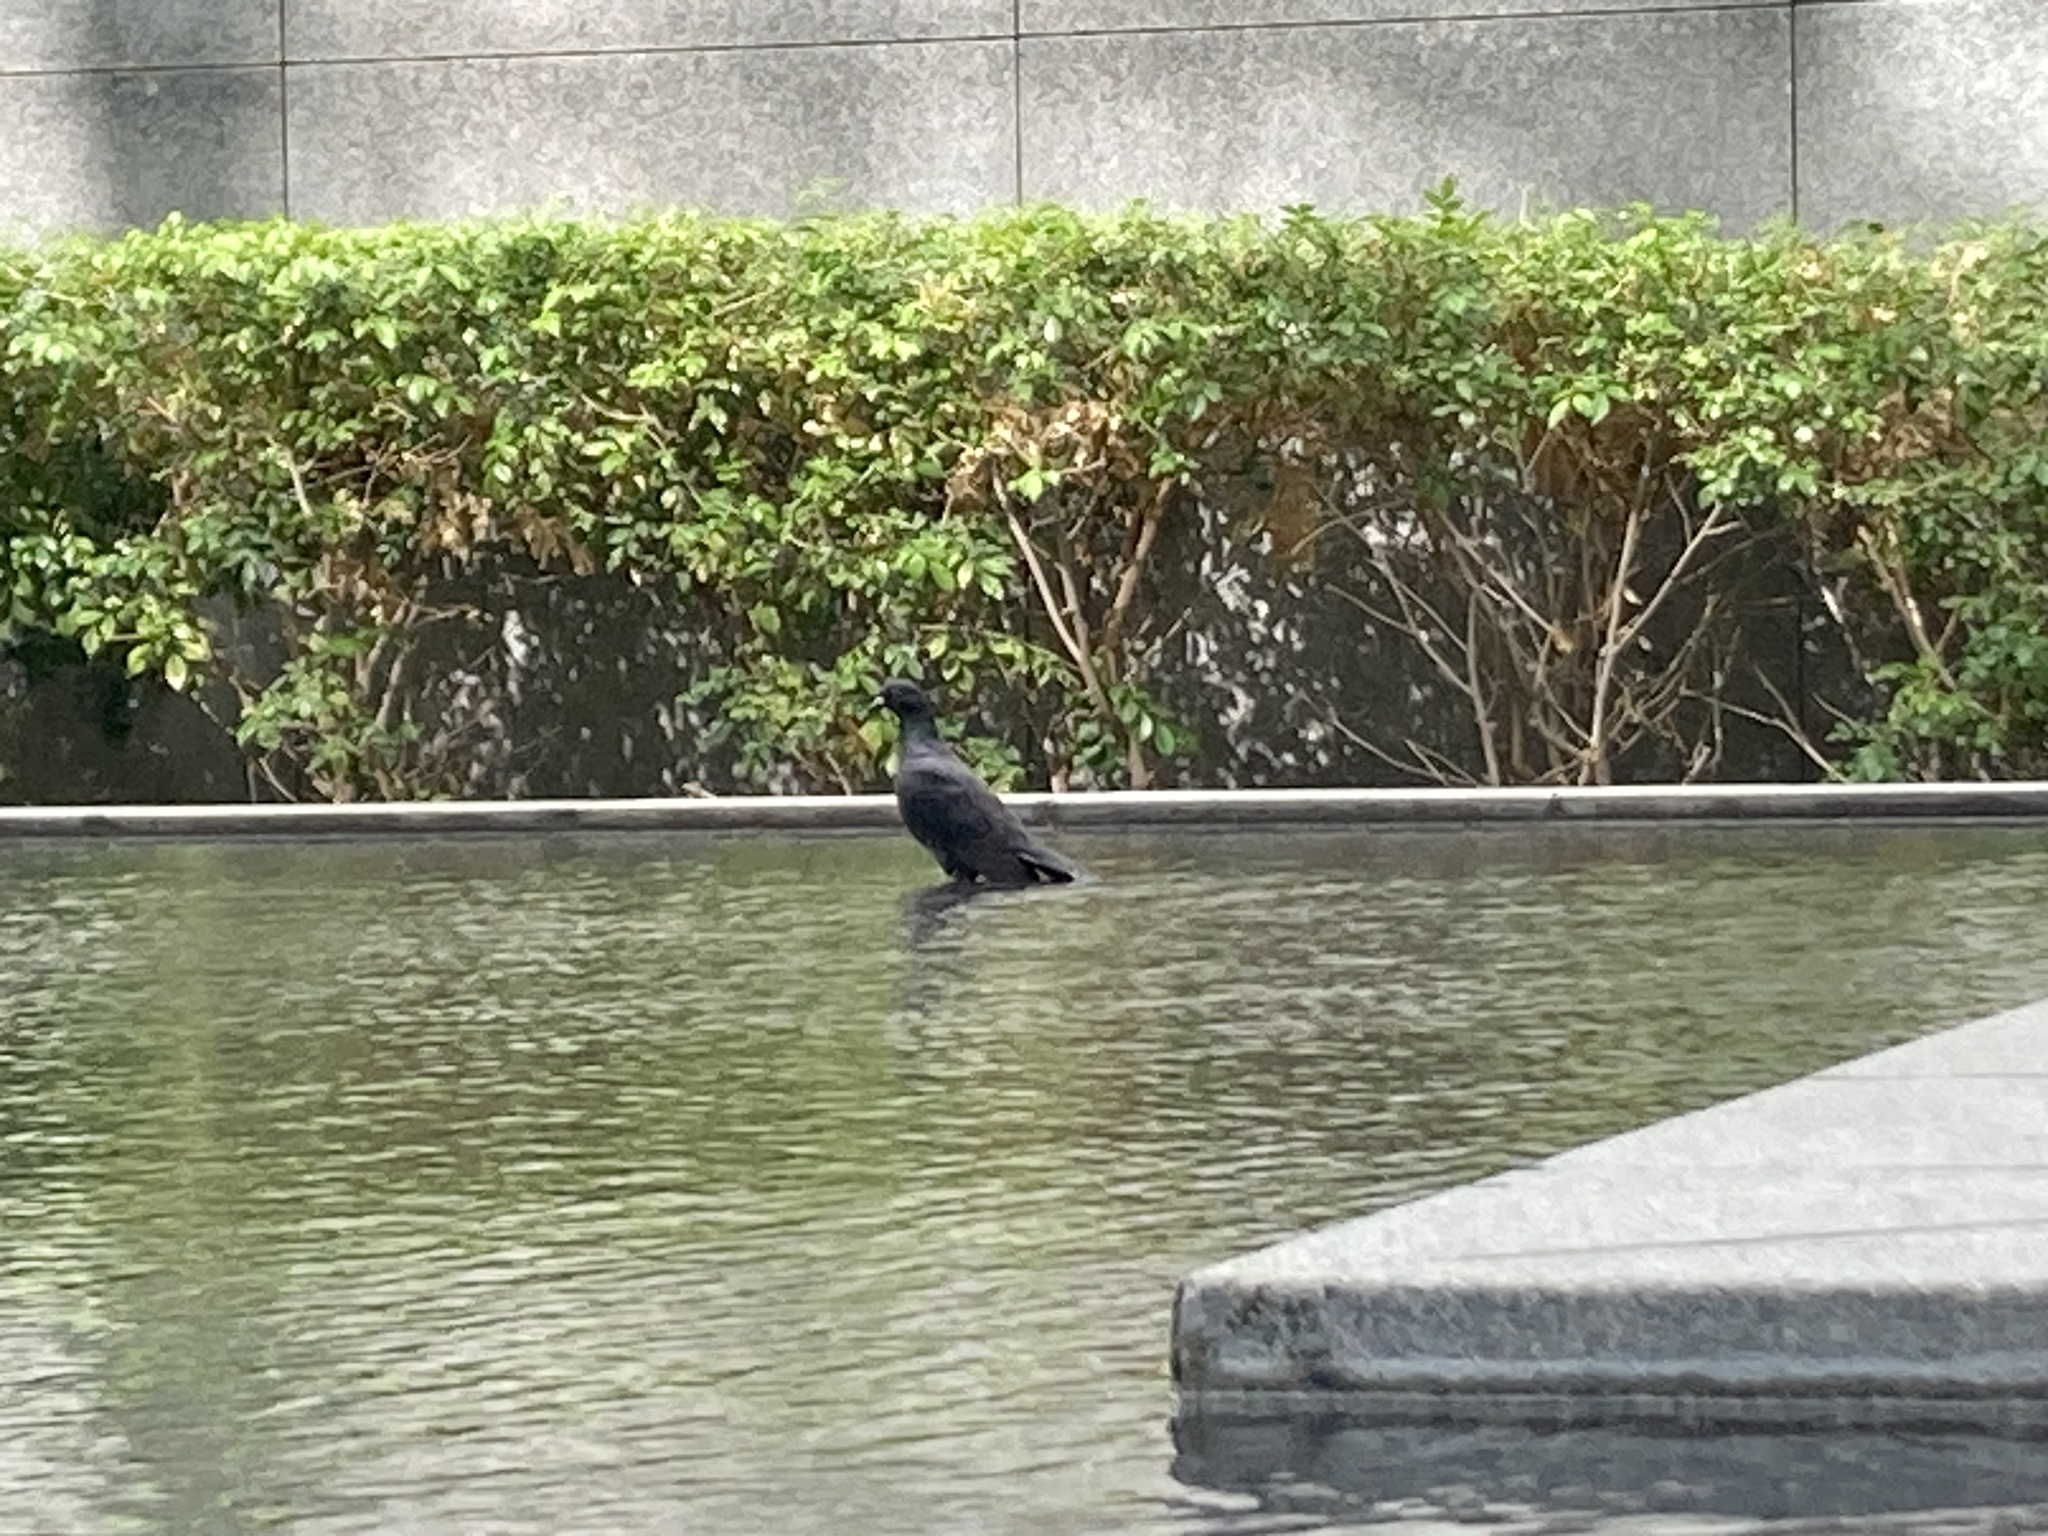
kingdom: Animalia
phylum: Chordata
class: Aves
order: Columbiformes
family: Columbidae
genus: Columba
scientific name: Columba livia
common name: Rock pigeon
